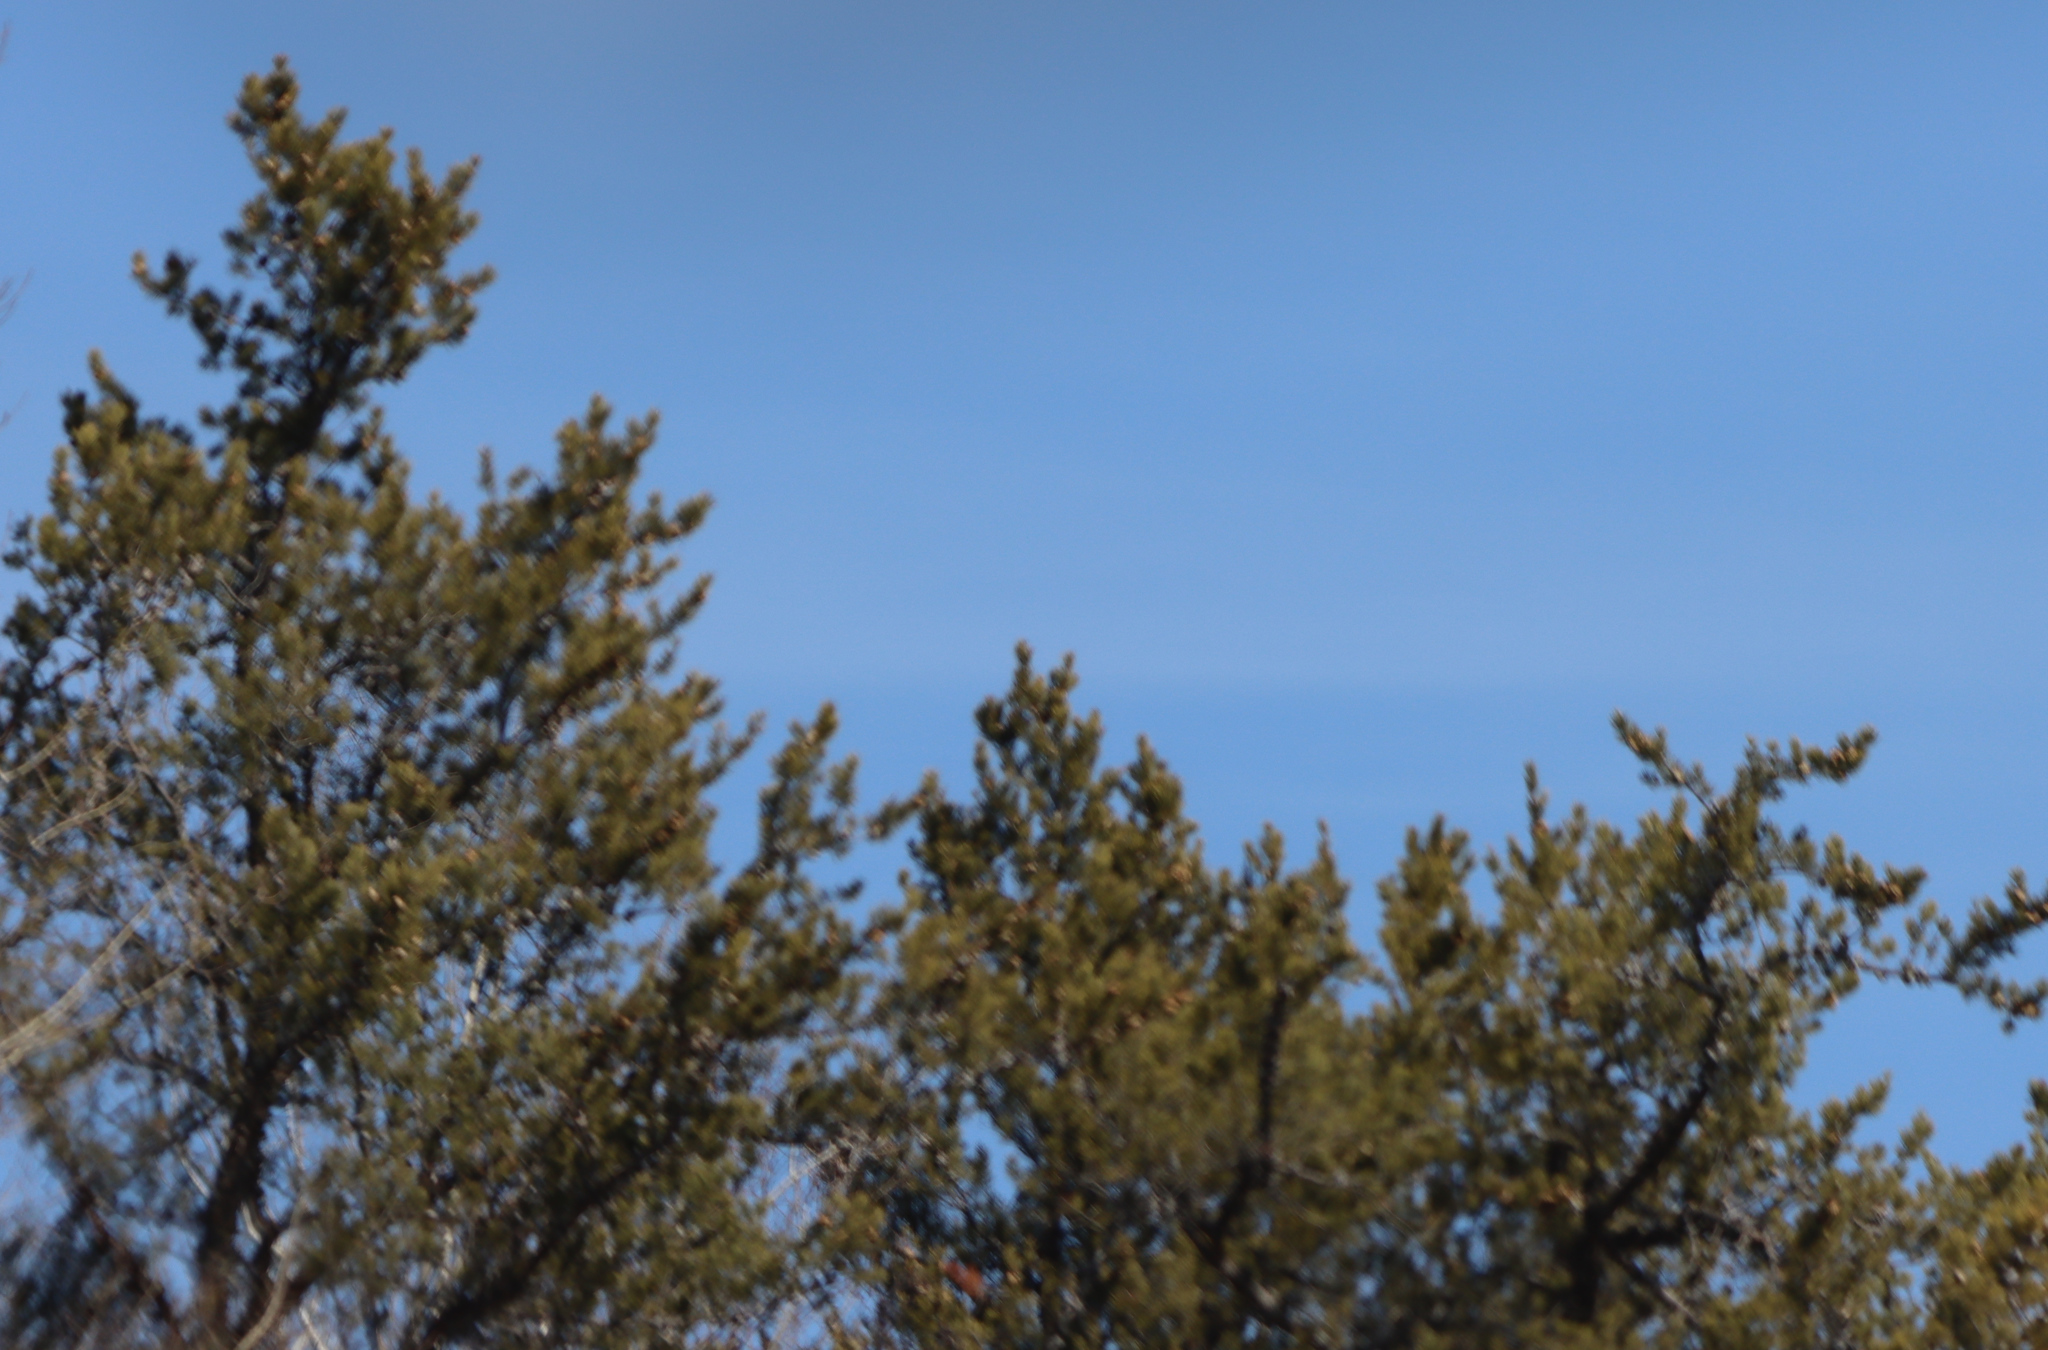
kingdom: Plantae
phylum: Tracheophyta
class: Pinopsida
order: Pinales
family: Pinaceae
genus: Pinus
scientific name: Pinus banksiana
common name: Jack pine
